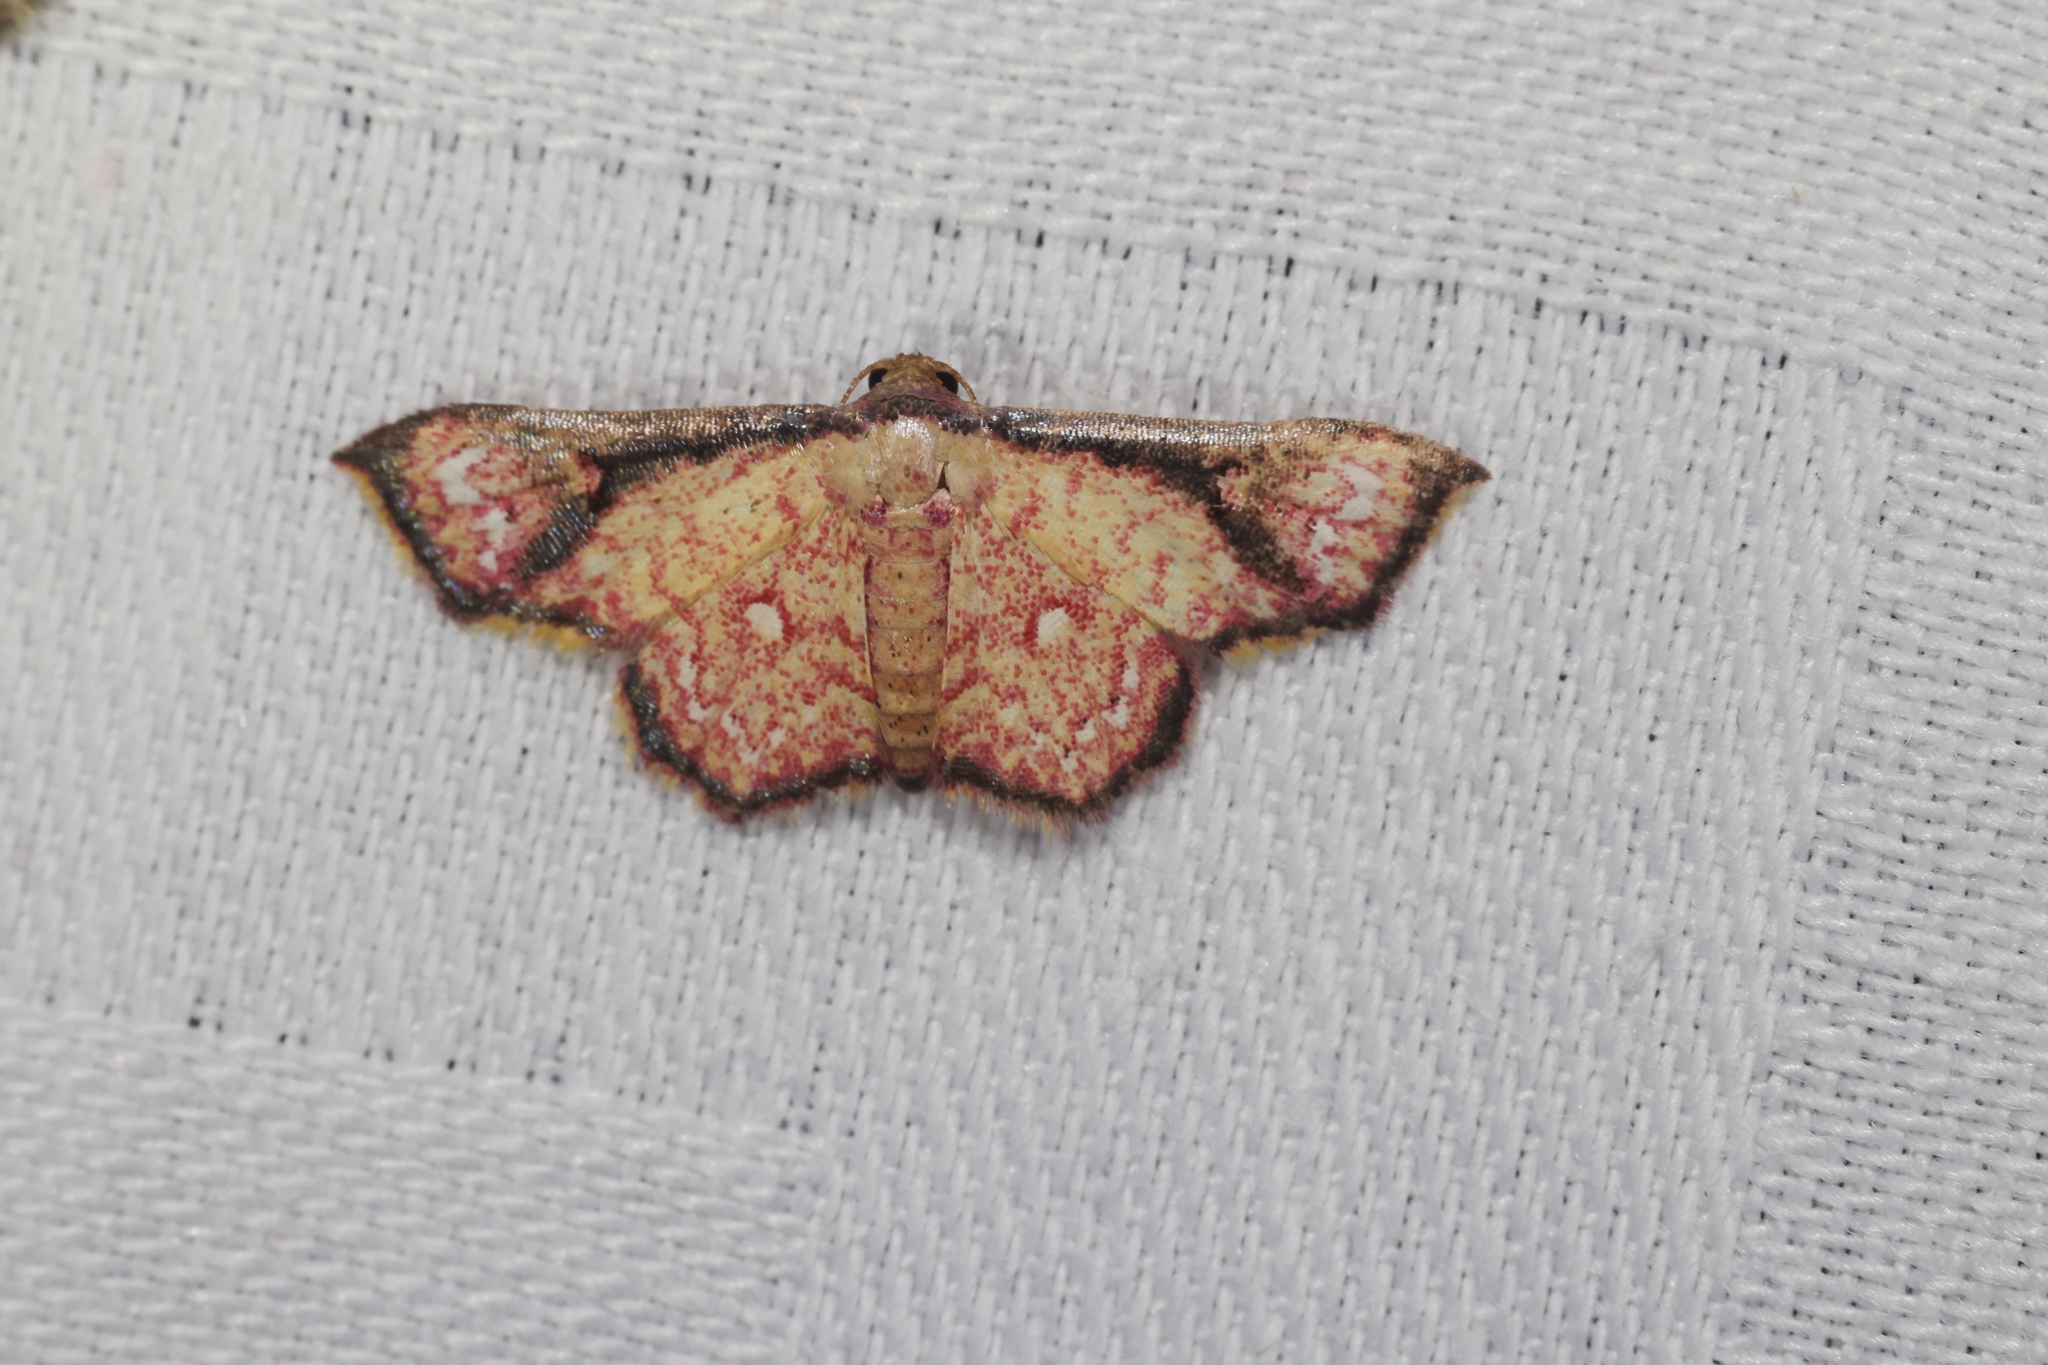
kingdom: Animalia
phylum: Arthropoda
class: Insecta
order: Lepidoptera
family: Noctuidae
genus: Enispa
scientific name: Enispa elataria
